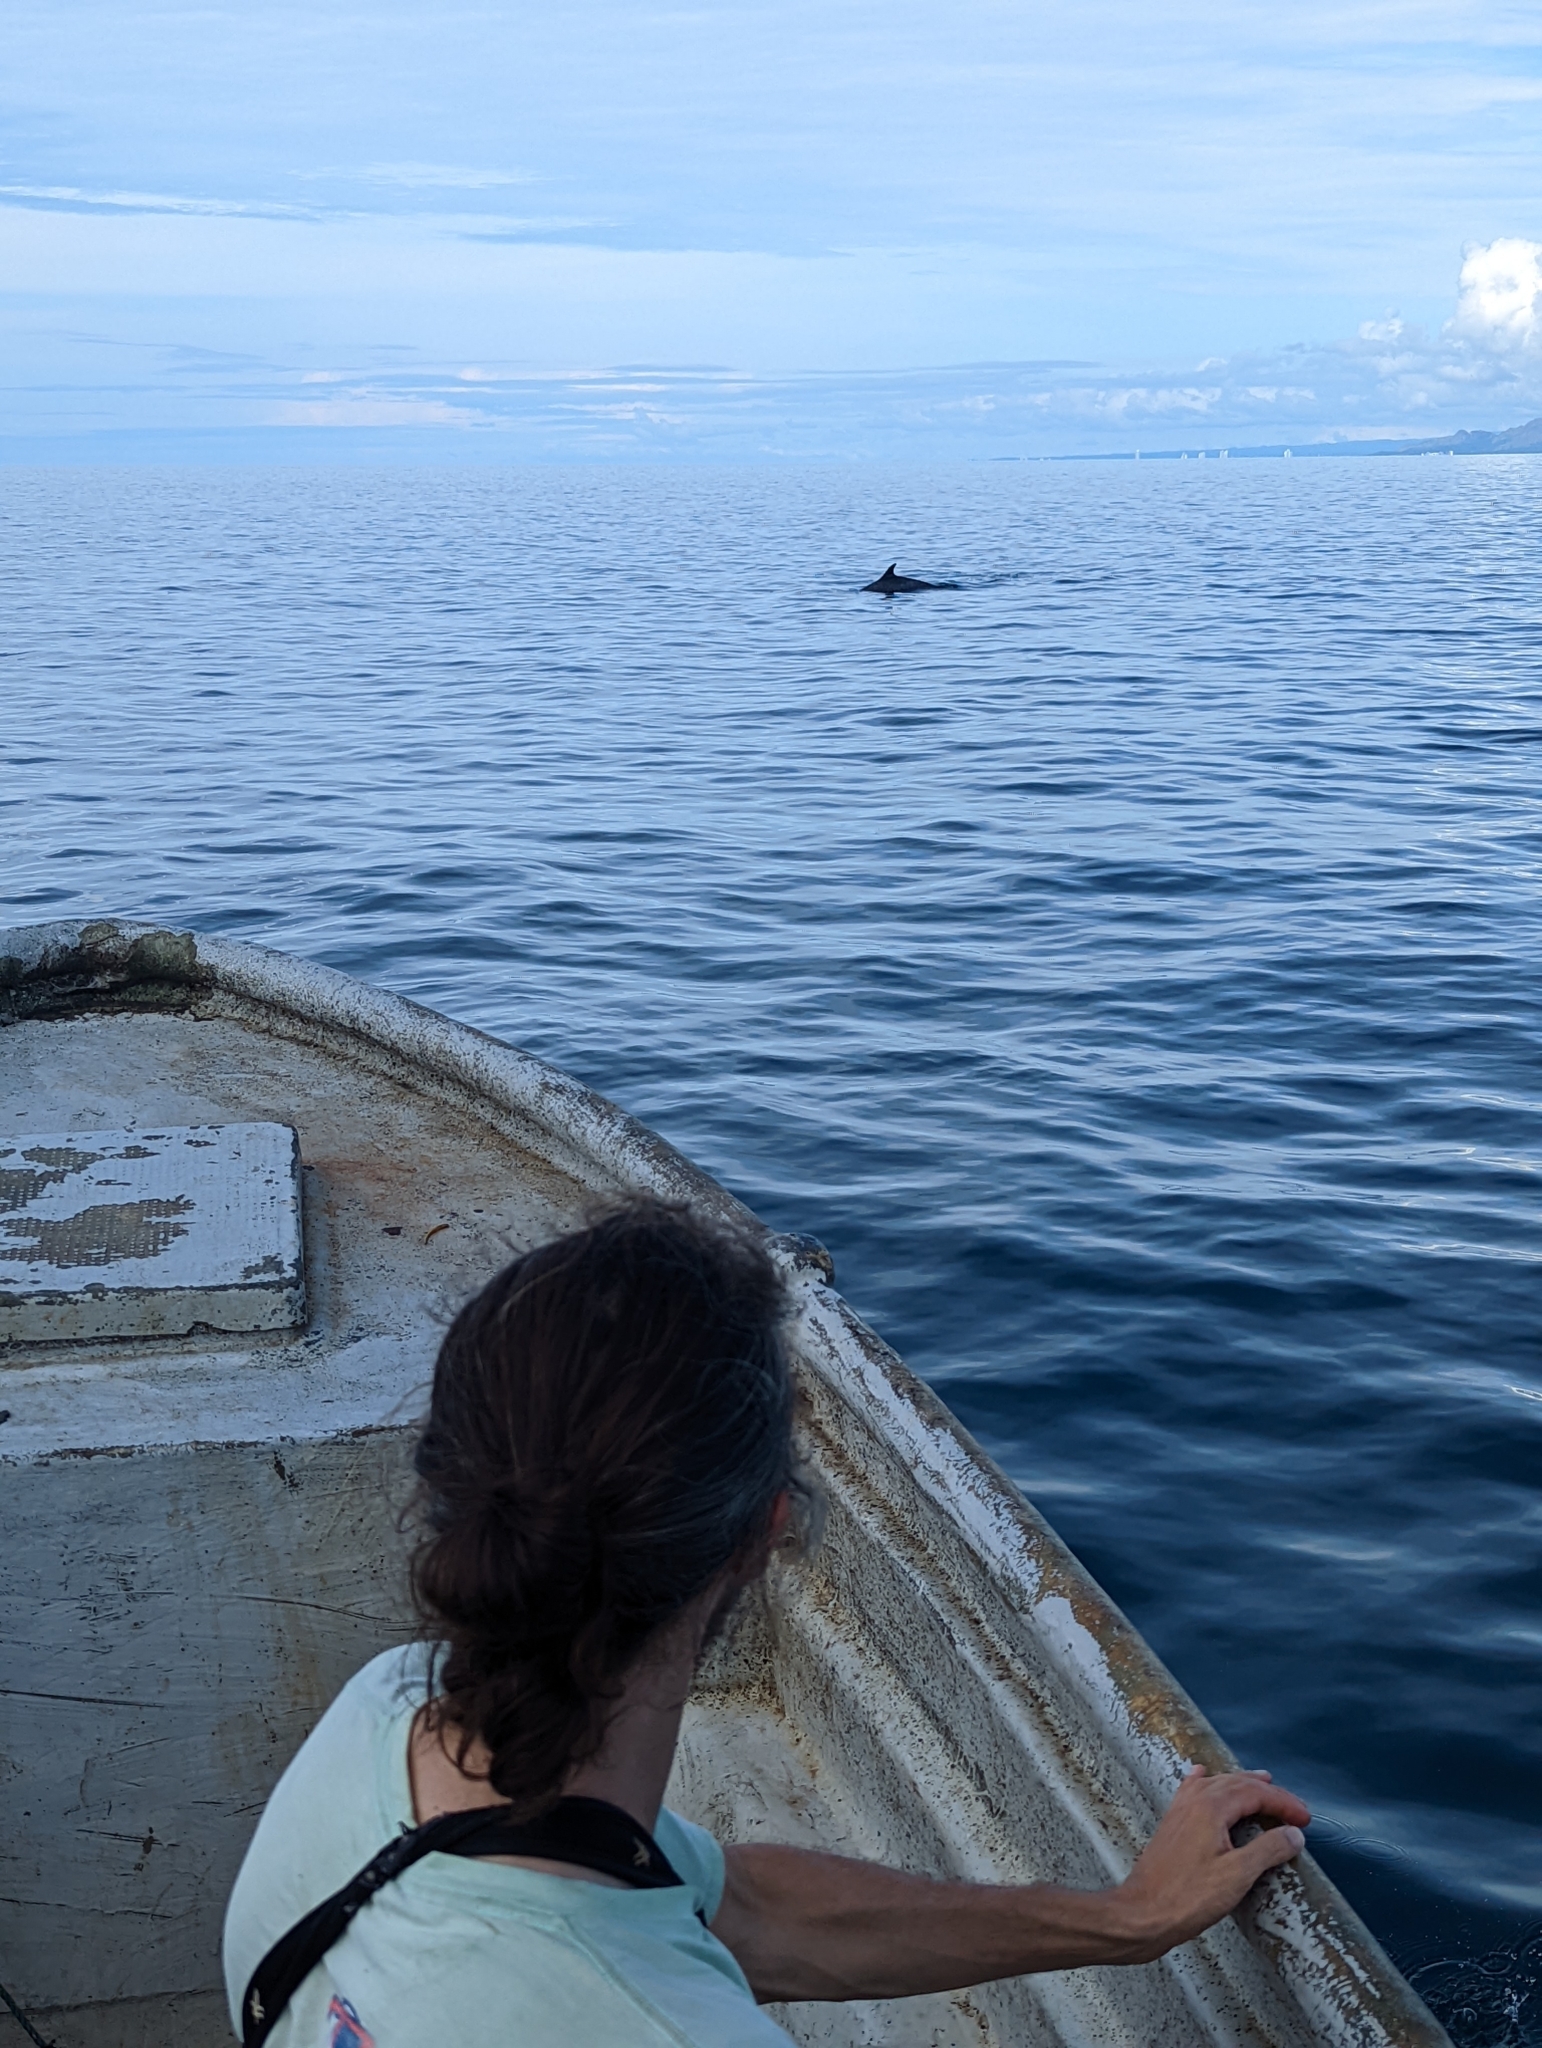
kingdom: Animalia
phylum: Chordata
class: Mammalia
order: Cetacea
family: Delphinidae
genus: Stenella
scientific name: Stenella attenuata
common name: Pantropical spotted dolphin
